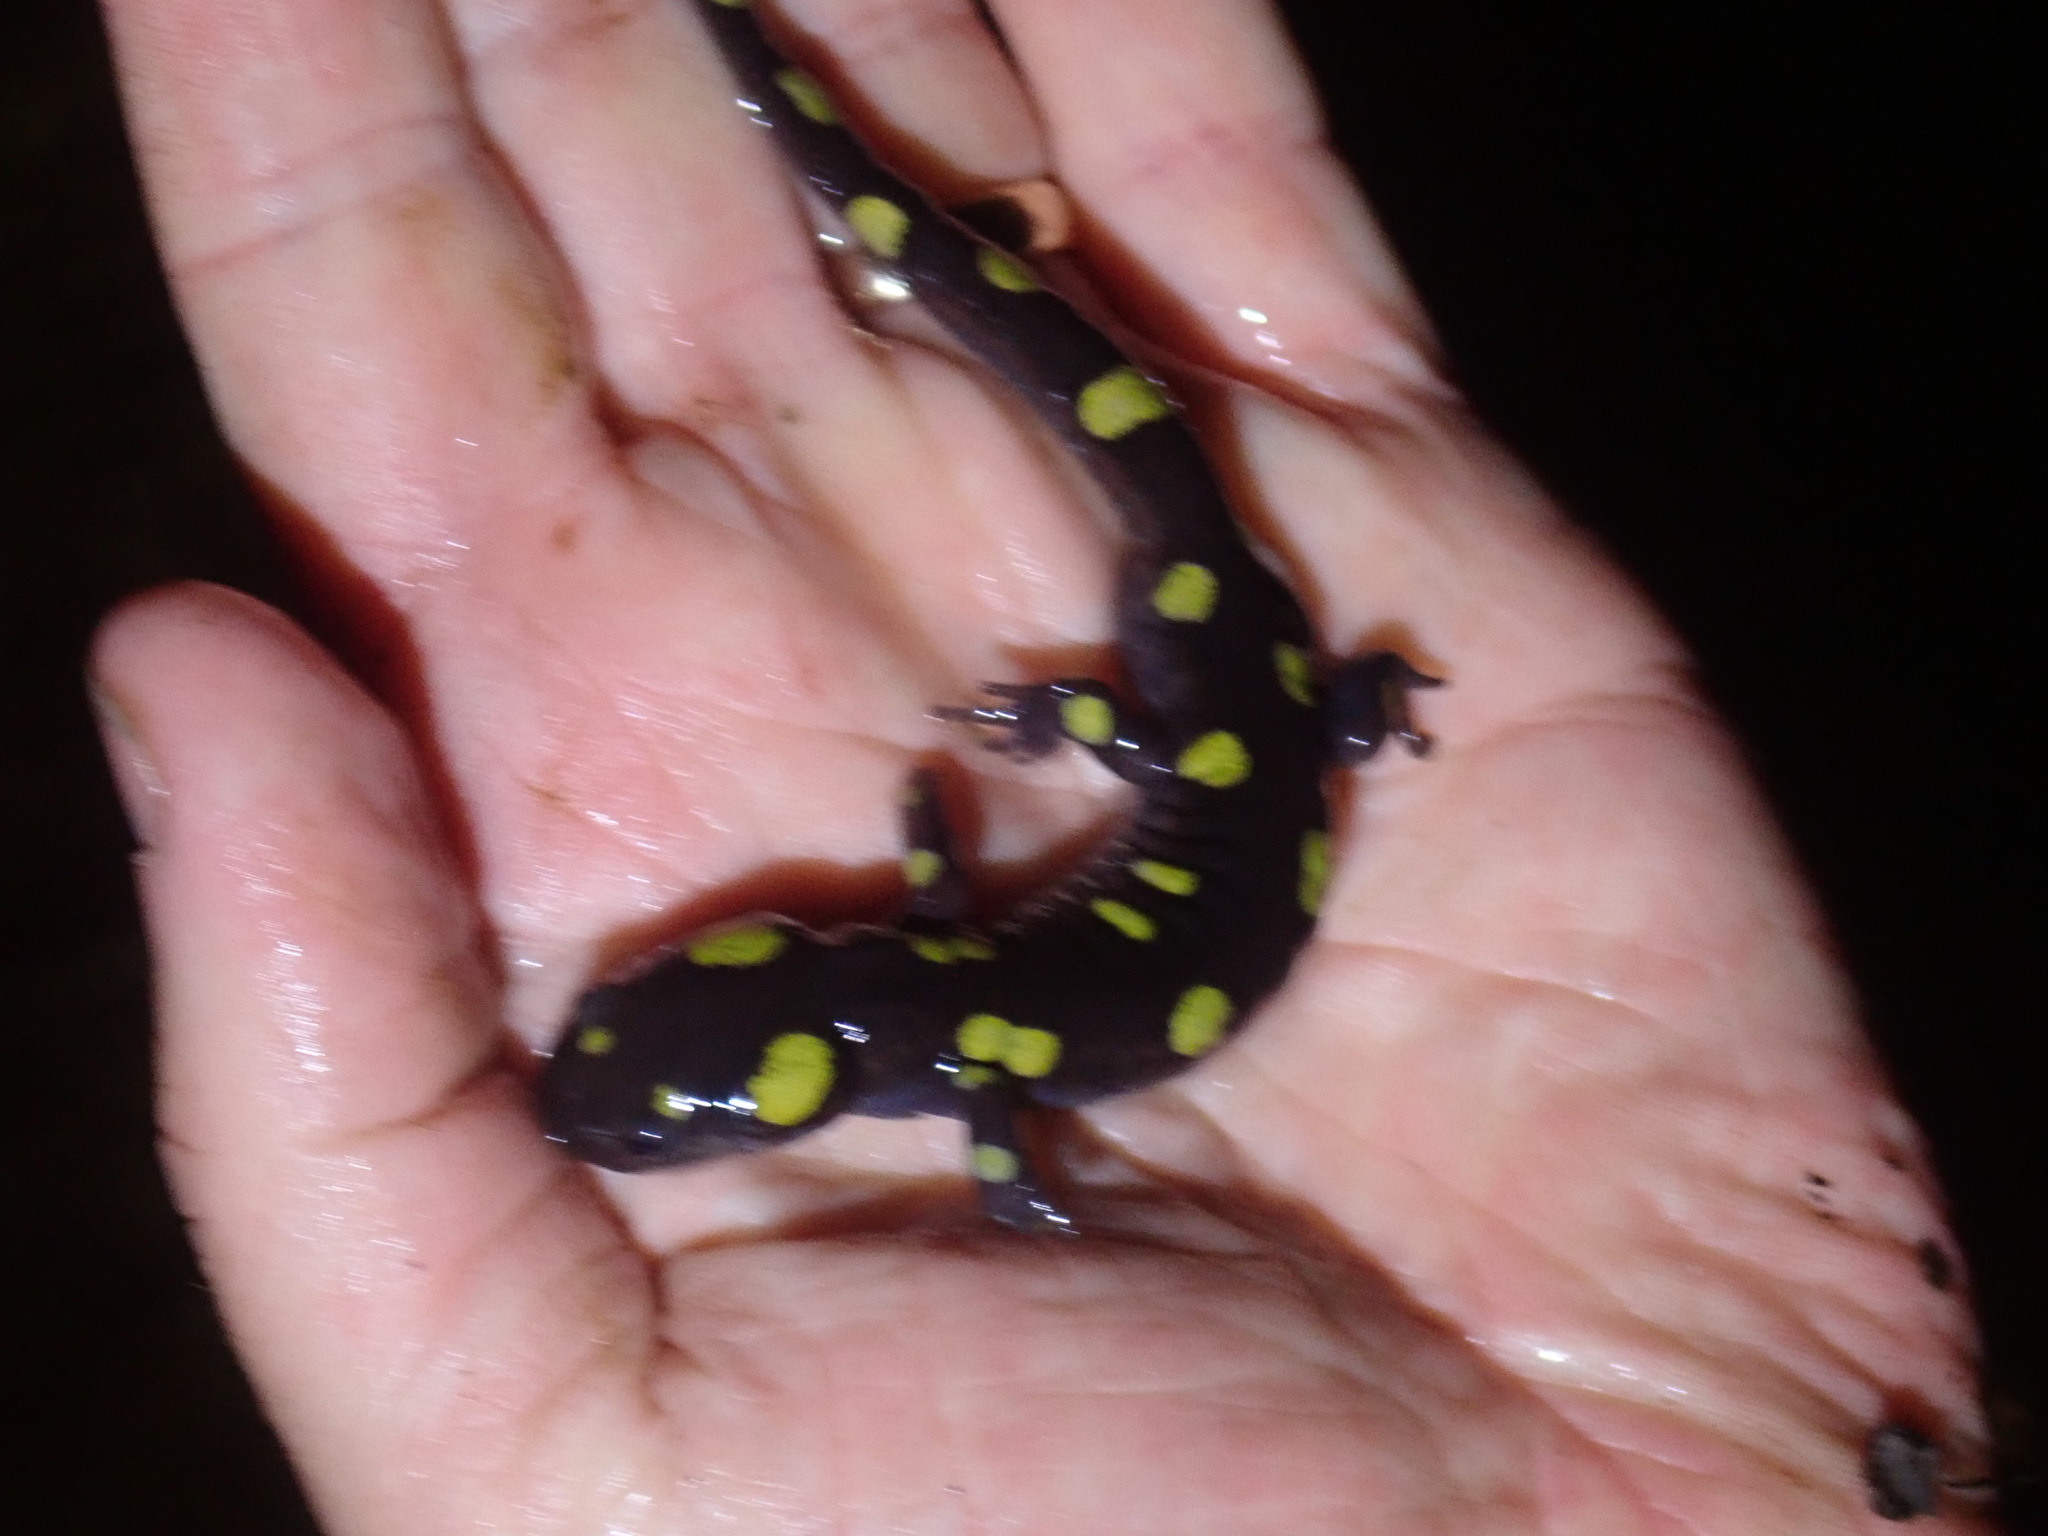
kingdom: Animalia
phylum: Chordata
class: Amphibia
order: Caudata
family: Ambystomatidae
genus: Ambystoma
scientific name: Ambystoma maculatum
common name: Spotted salamander
